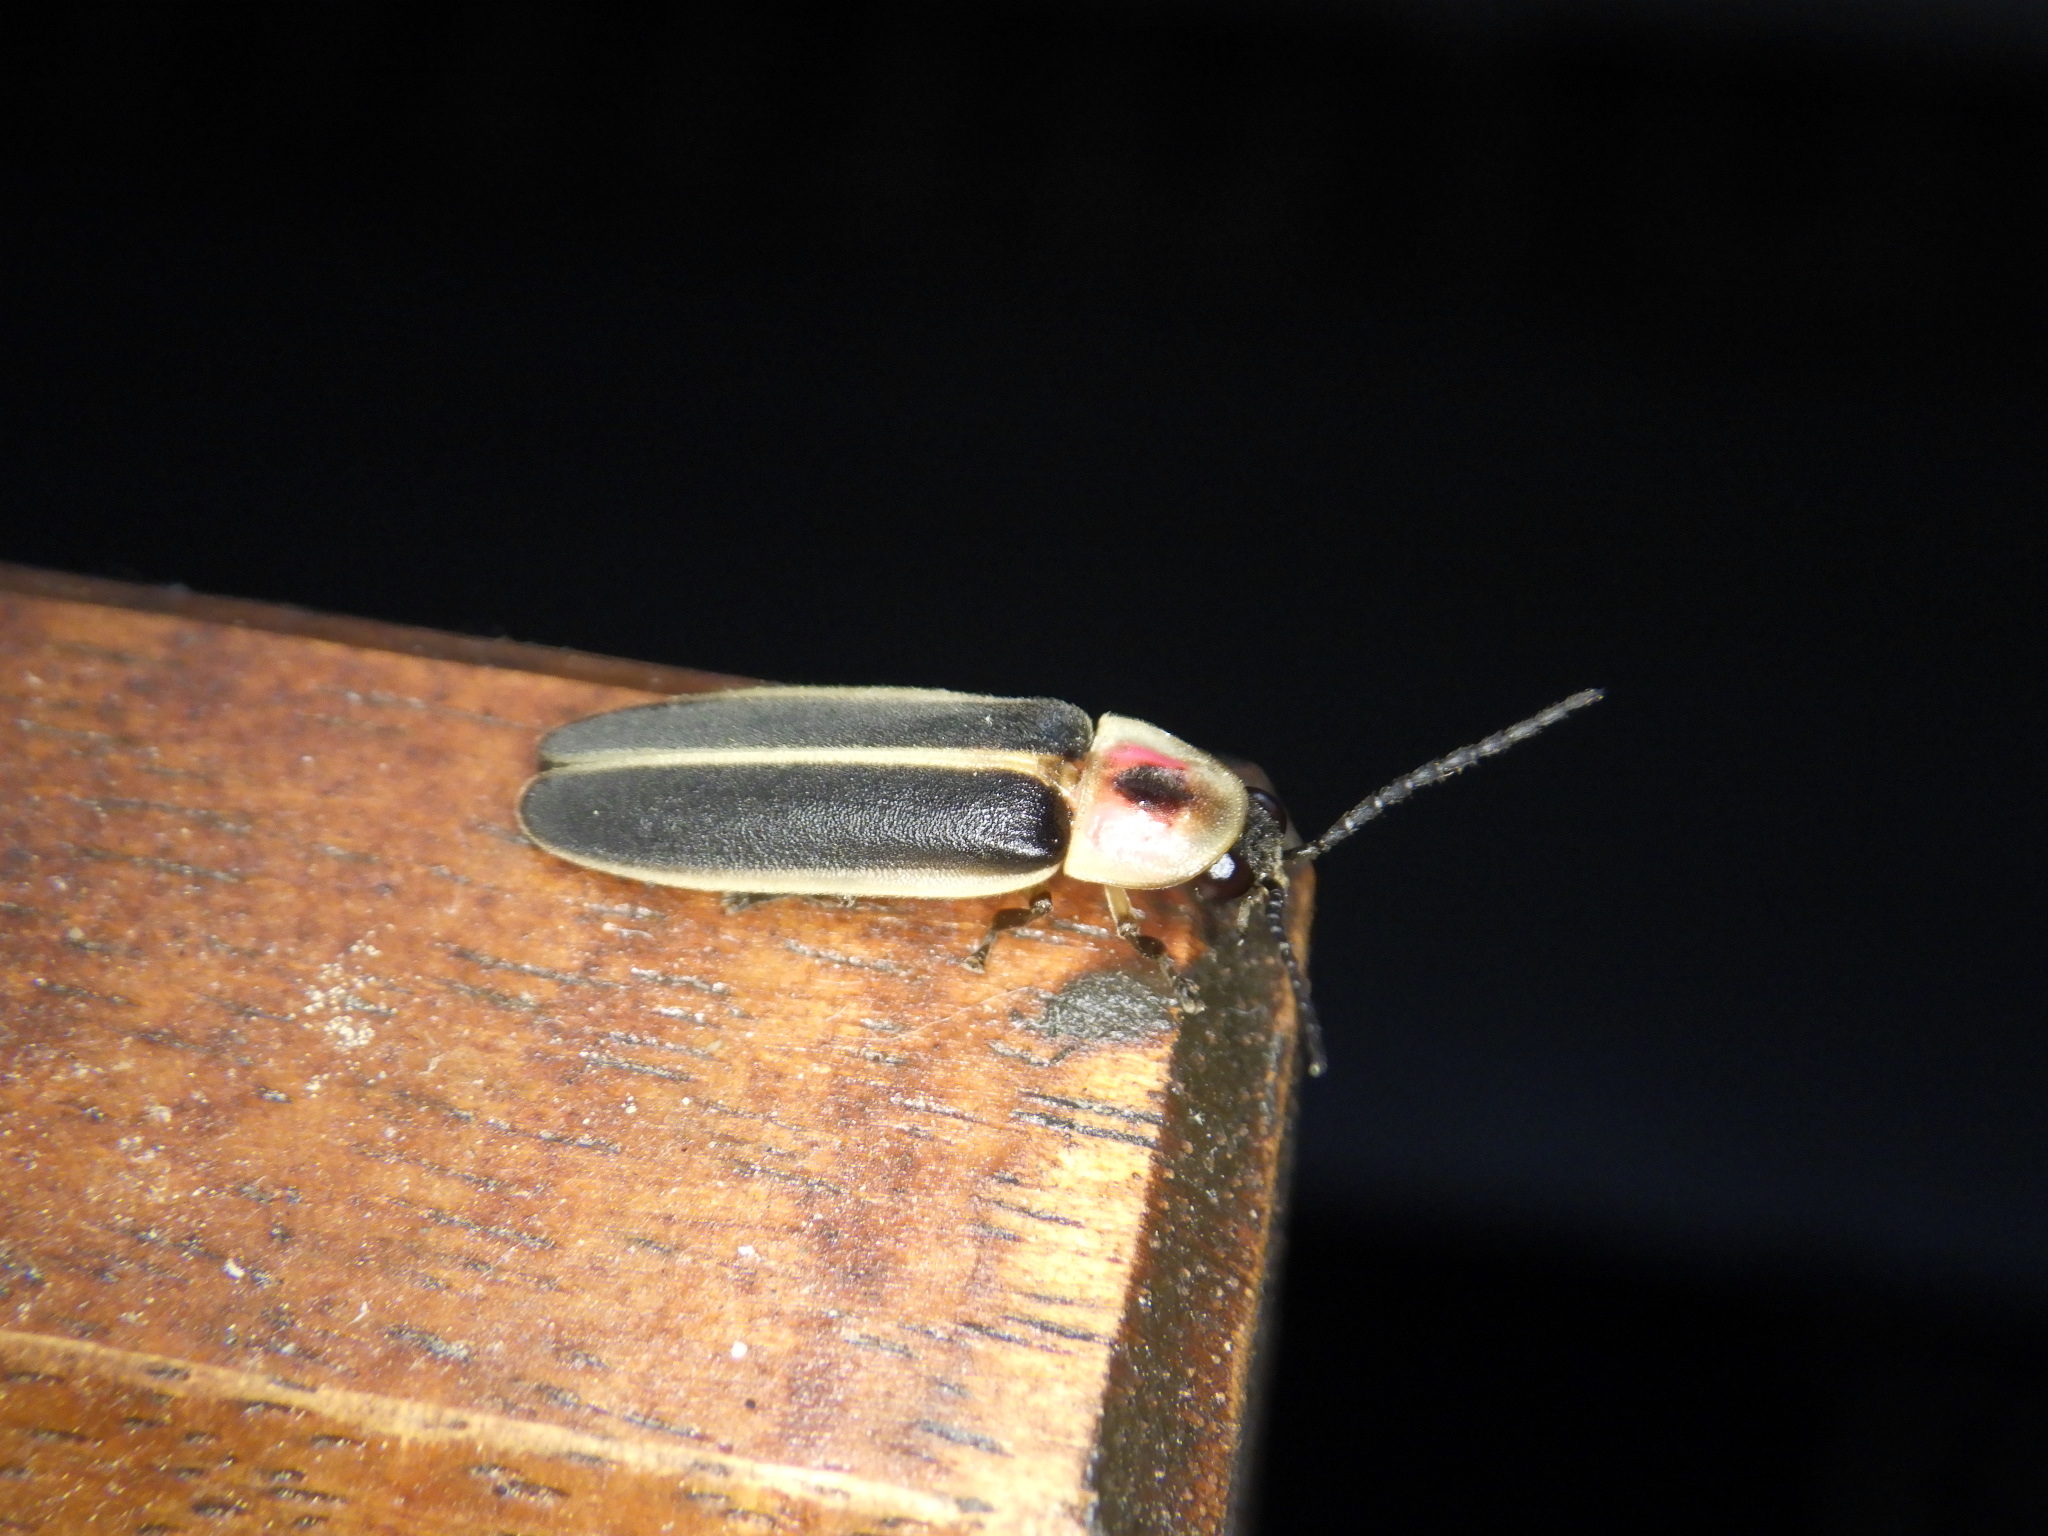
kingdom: Animalia
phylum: Arthropoda
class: Insecta
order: Coleoptera
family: Lampyridae
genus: Photinus
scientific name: Photinus pyralis
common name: Big dipper firefly
